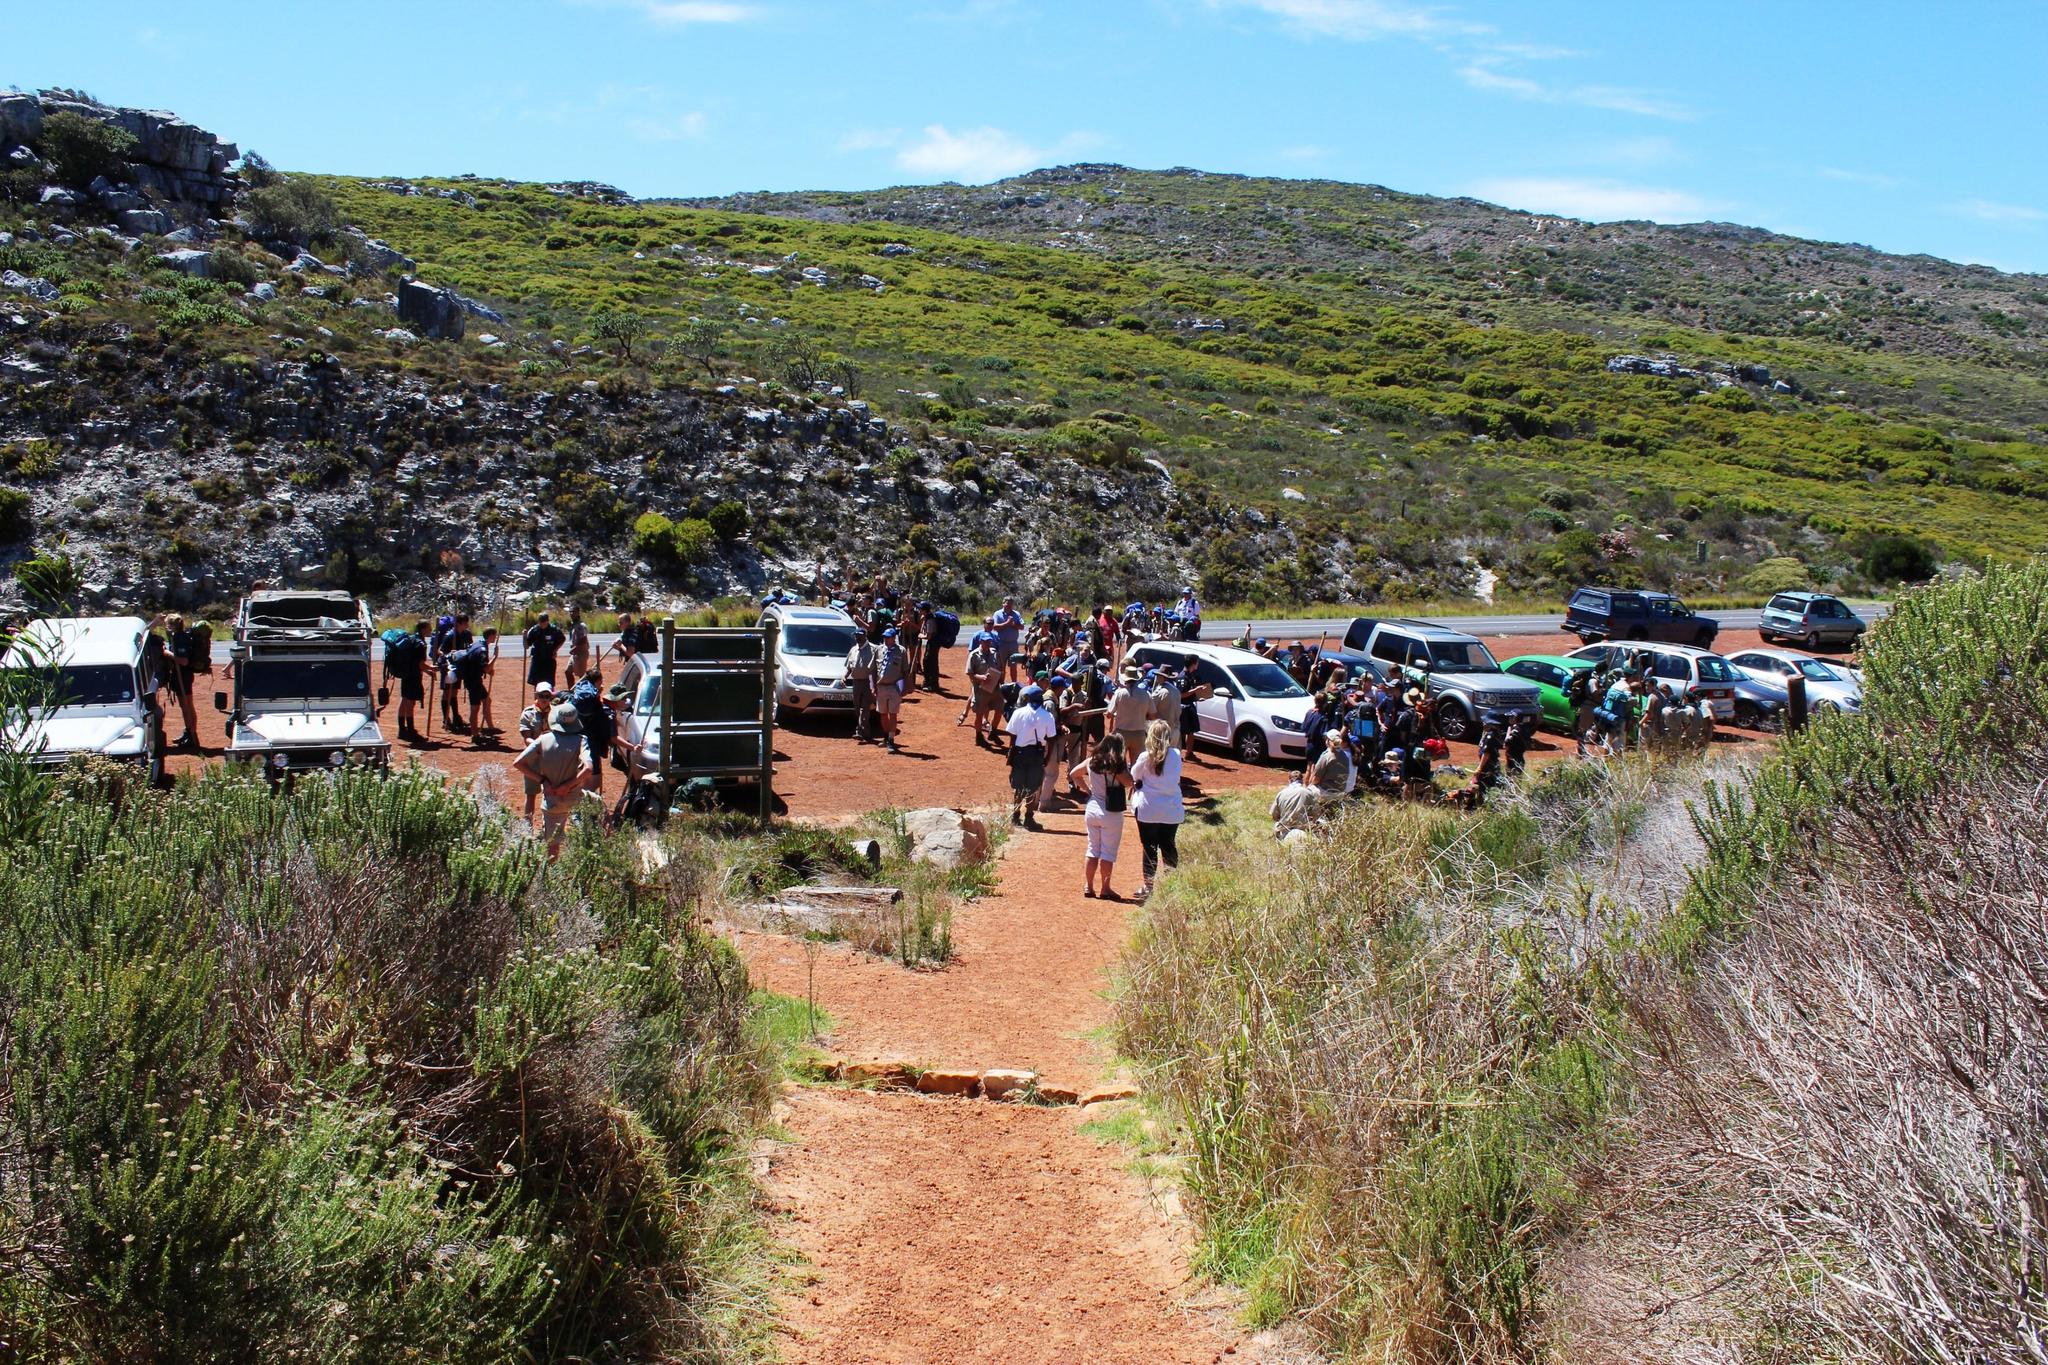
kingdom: Plantae
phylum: Tracheophyta
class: Magnoliopsida
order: Proteales
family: Proteaceae
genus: Leucadendron
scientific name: Leucadendron coniferum
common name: Dune conebush
